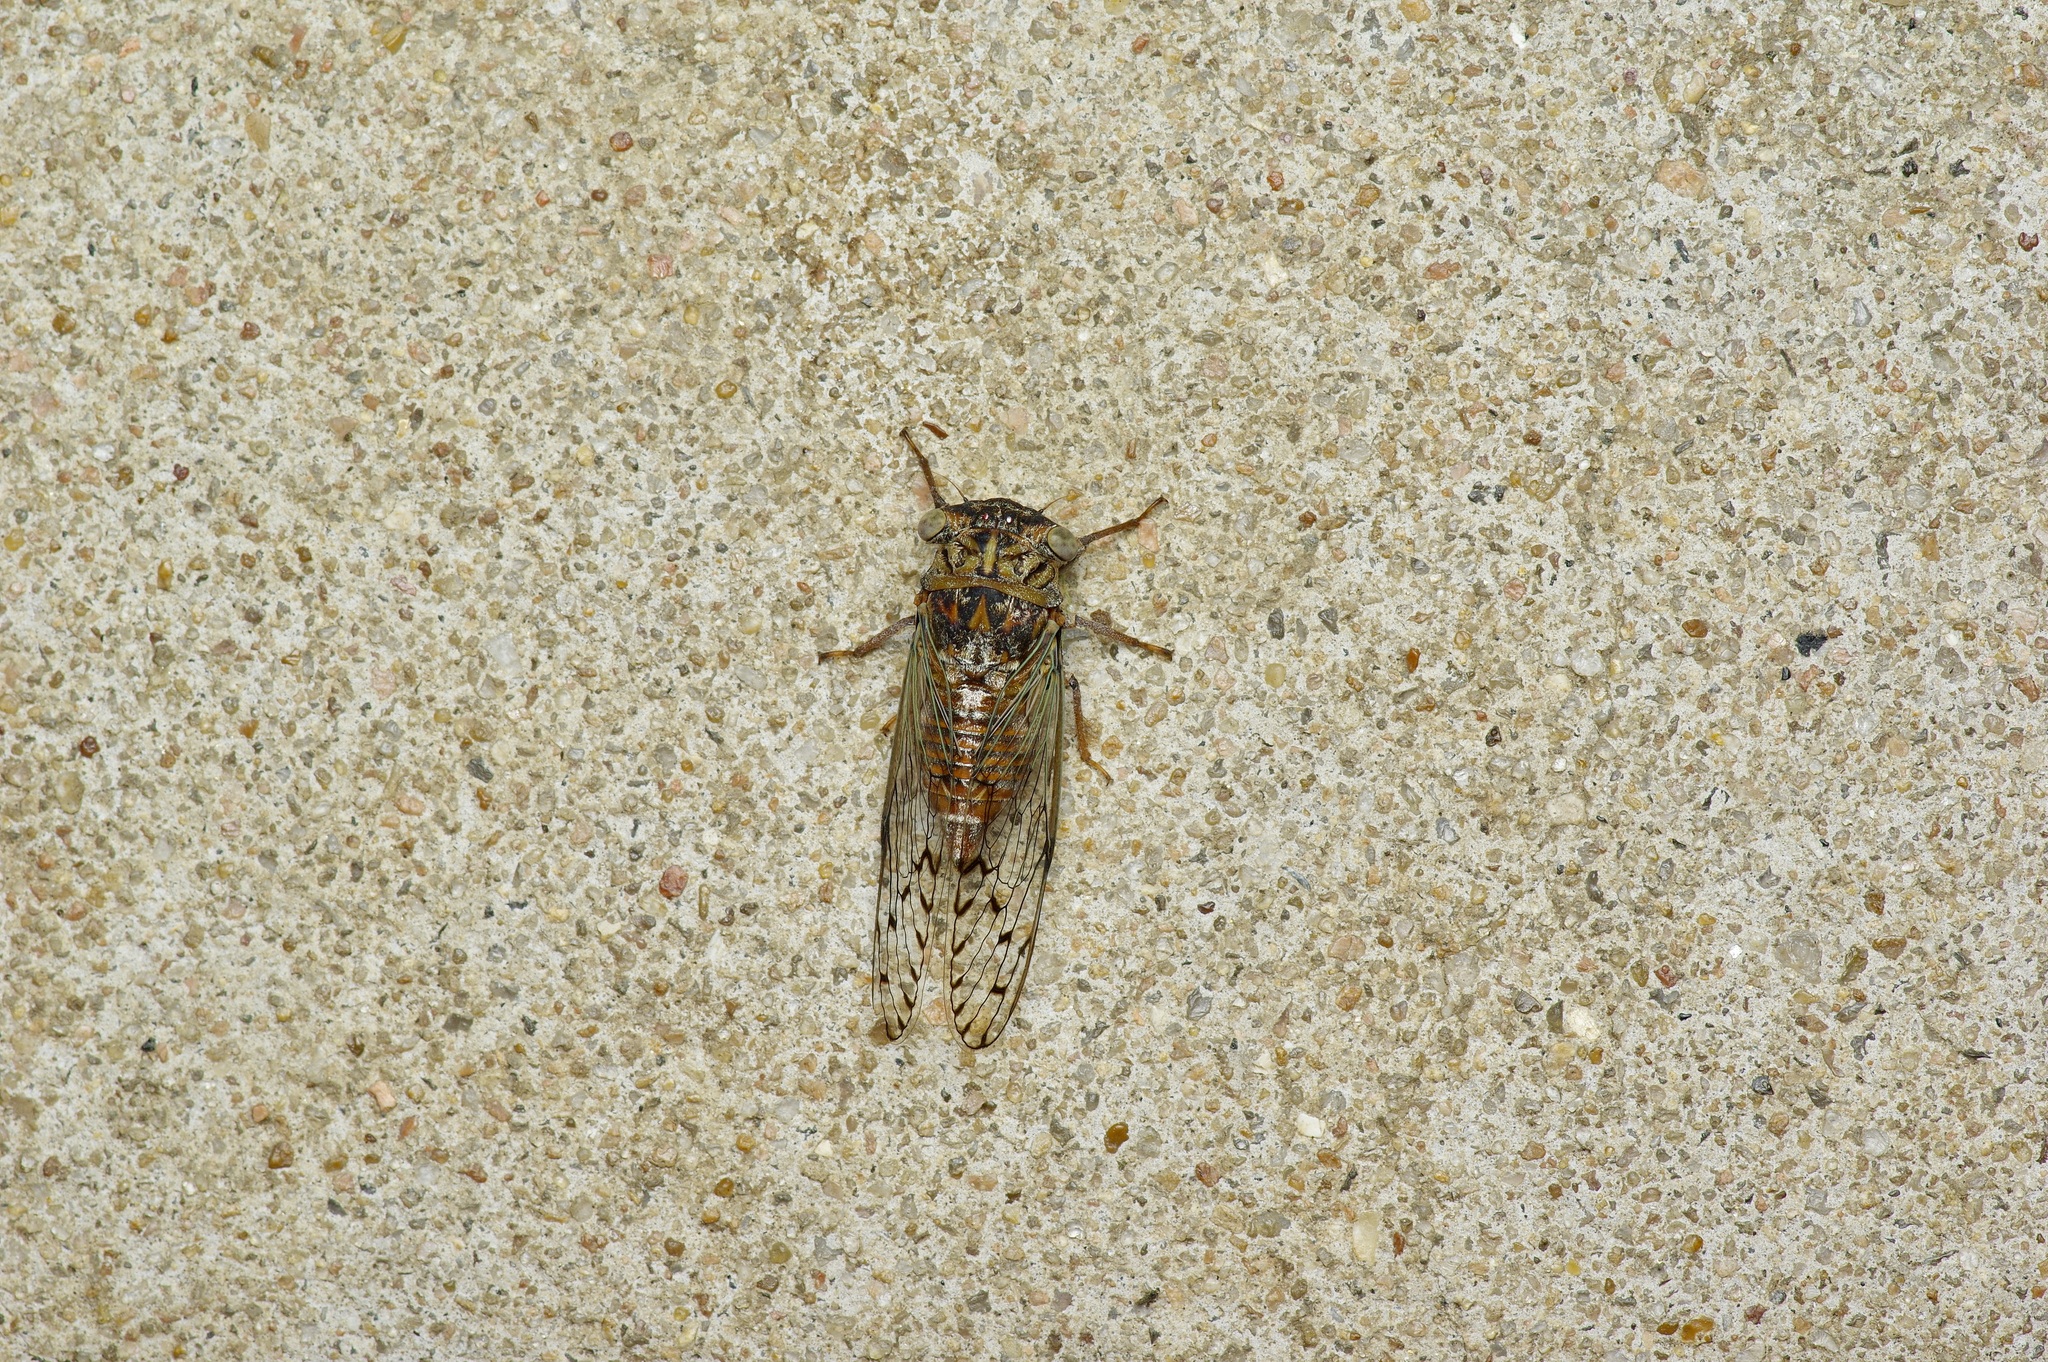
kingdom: Animalia
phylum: Arthropoda
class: Insecta
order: Hemiptera
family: Cicadidae
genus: Pacarina
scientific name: Pacarina puella
